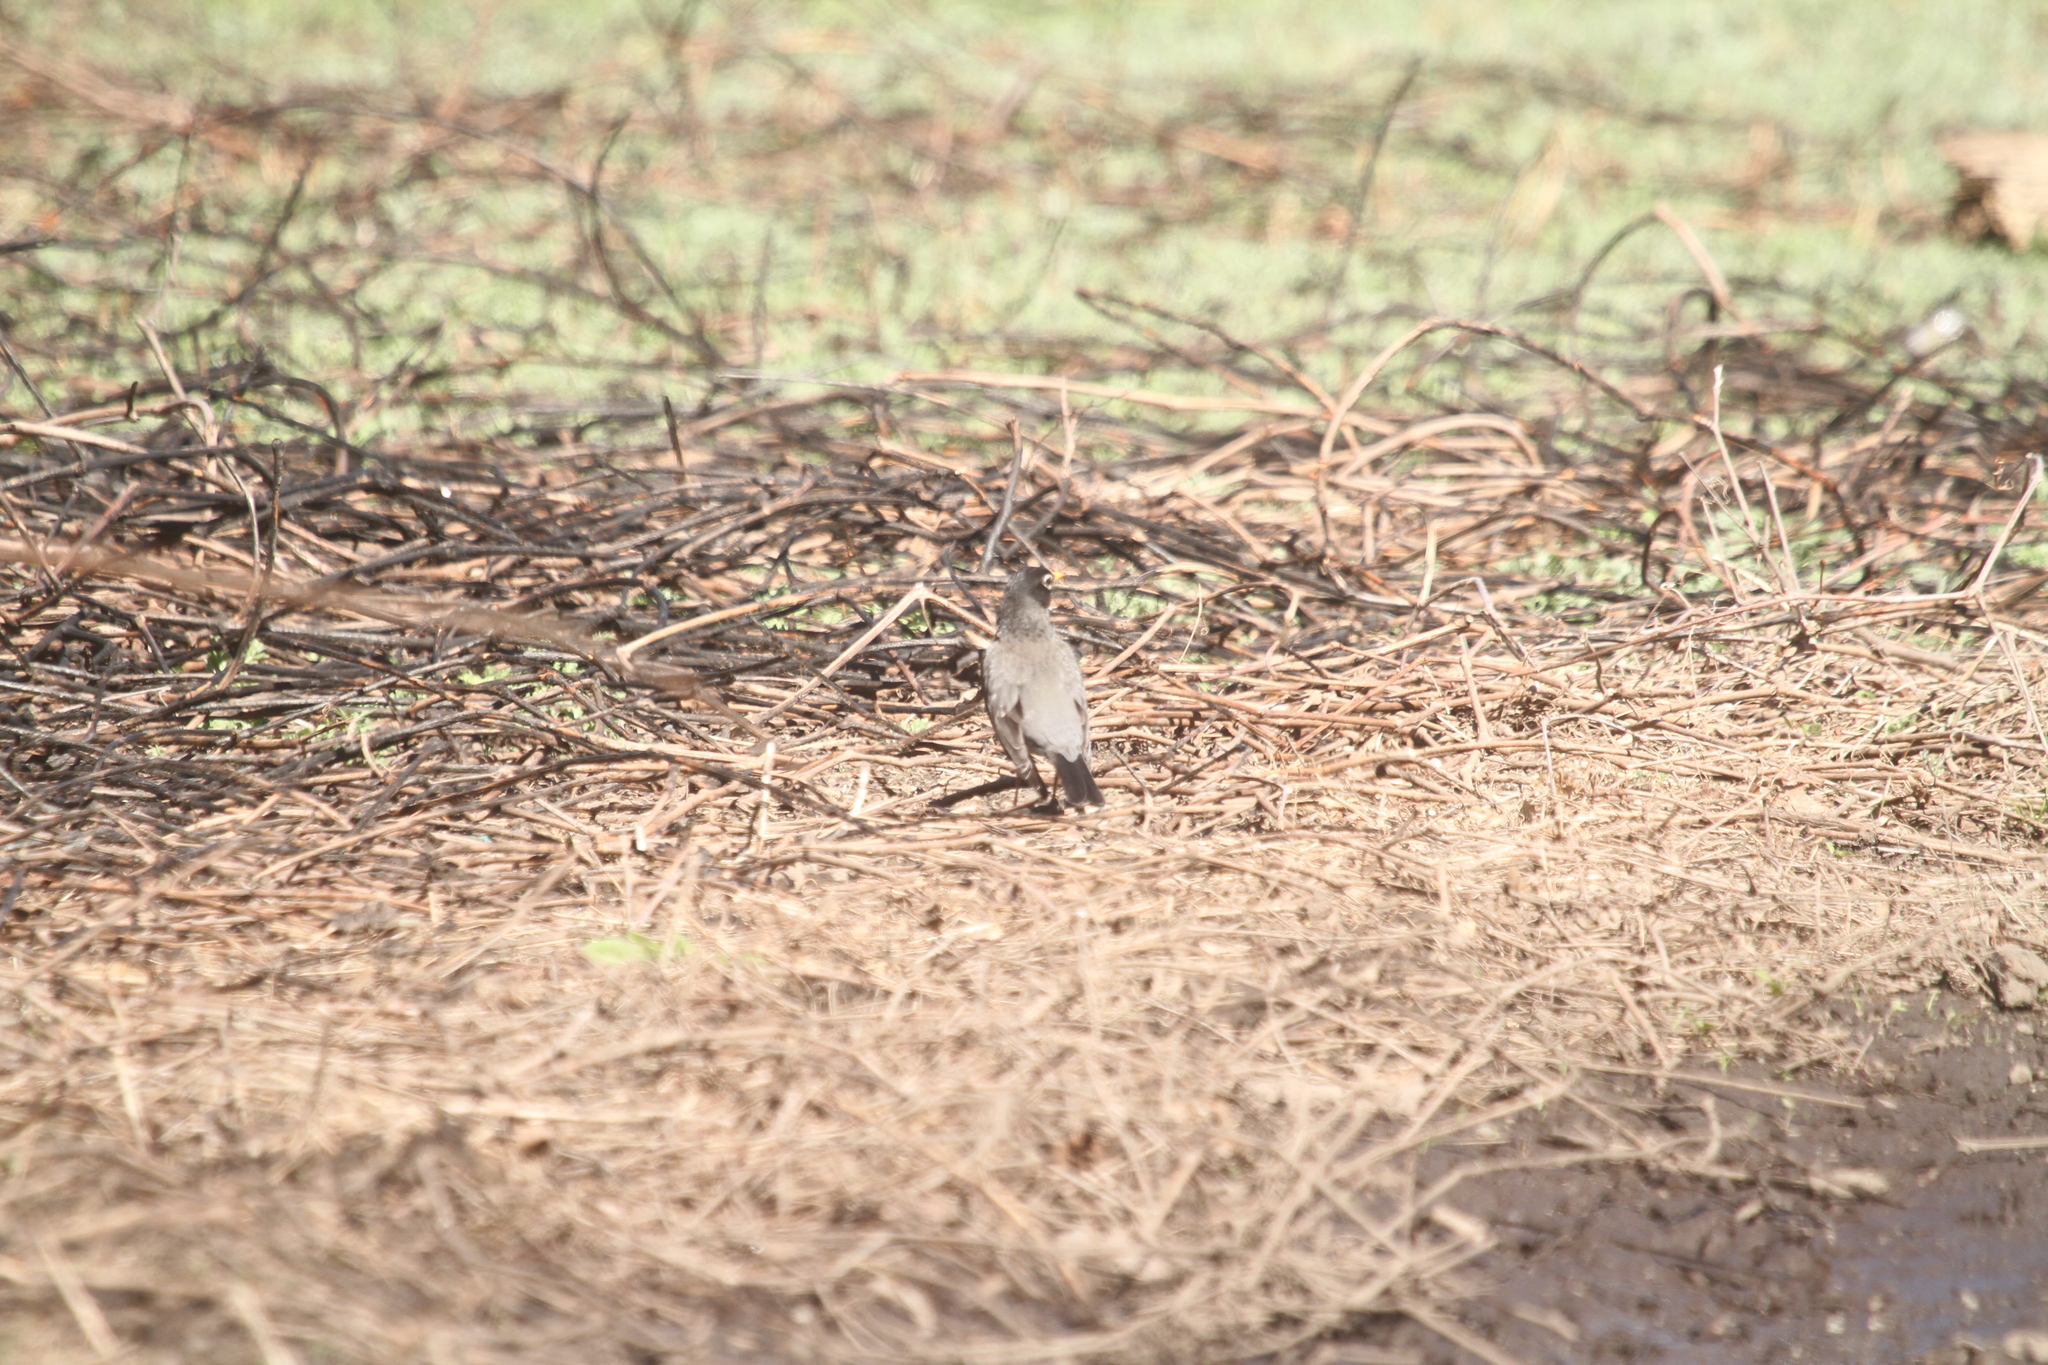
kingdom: Animalia
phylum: Chordata
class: Aves
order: Passeriformes
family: Turdidae
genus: Turdus
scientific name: Turdus migratorius
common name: American robin
